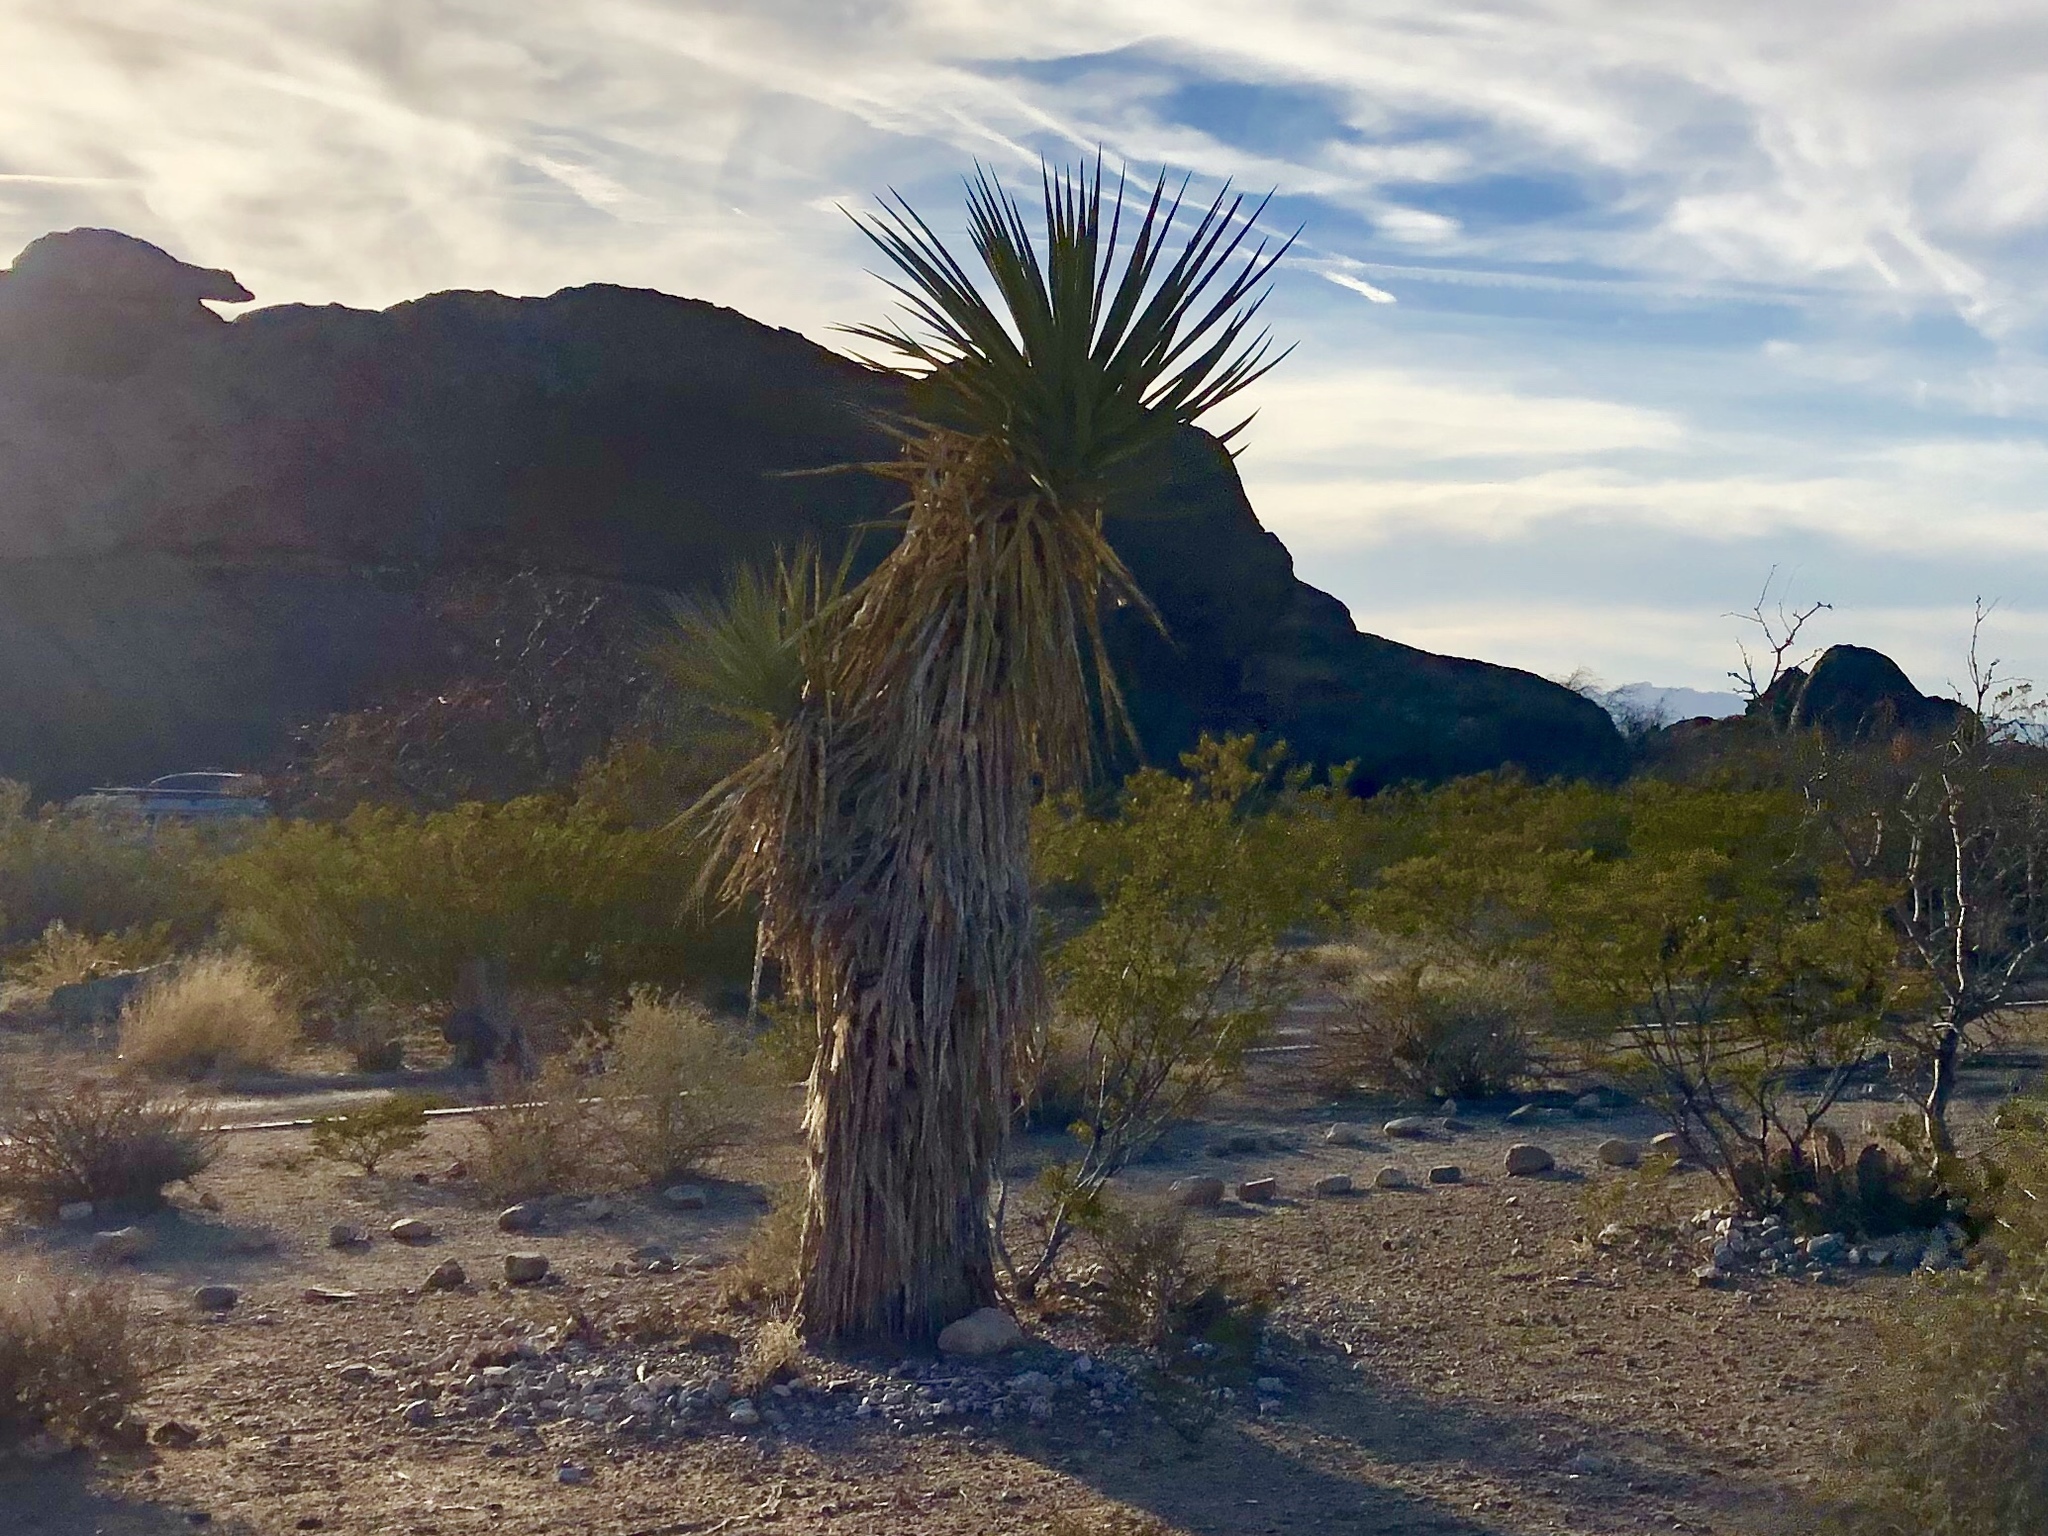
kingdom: Plantae
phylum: Tracheophyta
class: Liliopsida
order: Asparagales
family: Asparagaceae
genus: Yucca
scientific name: Yucca treculiana
